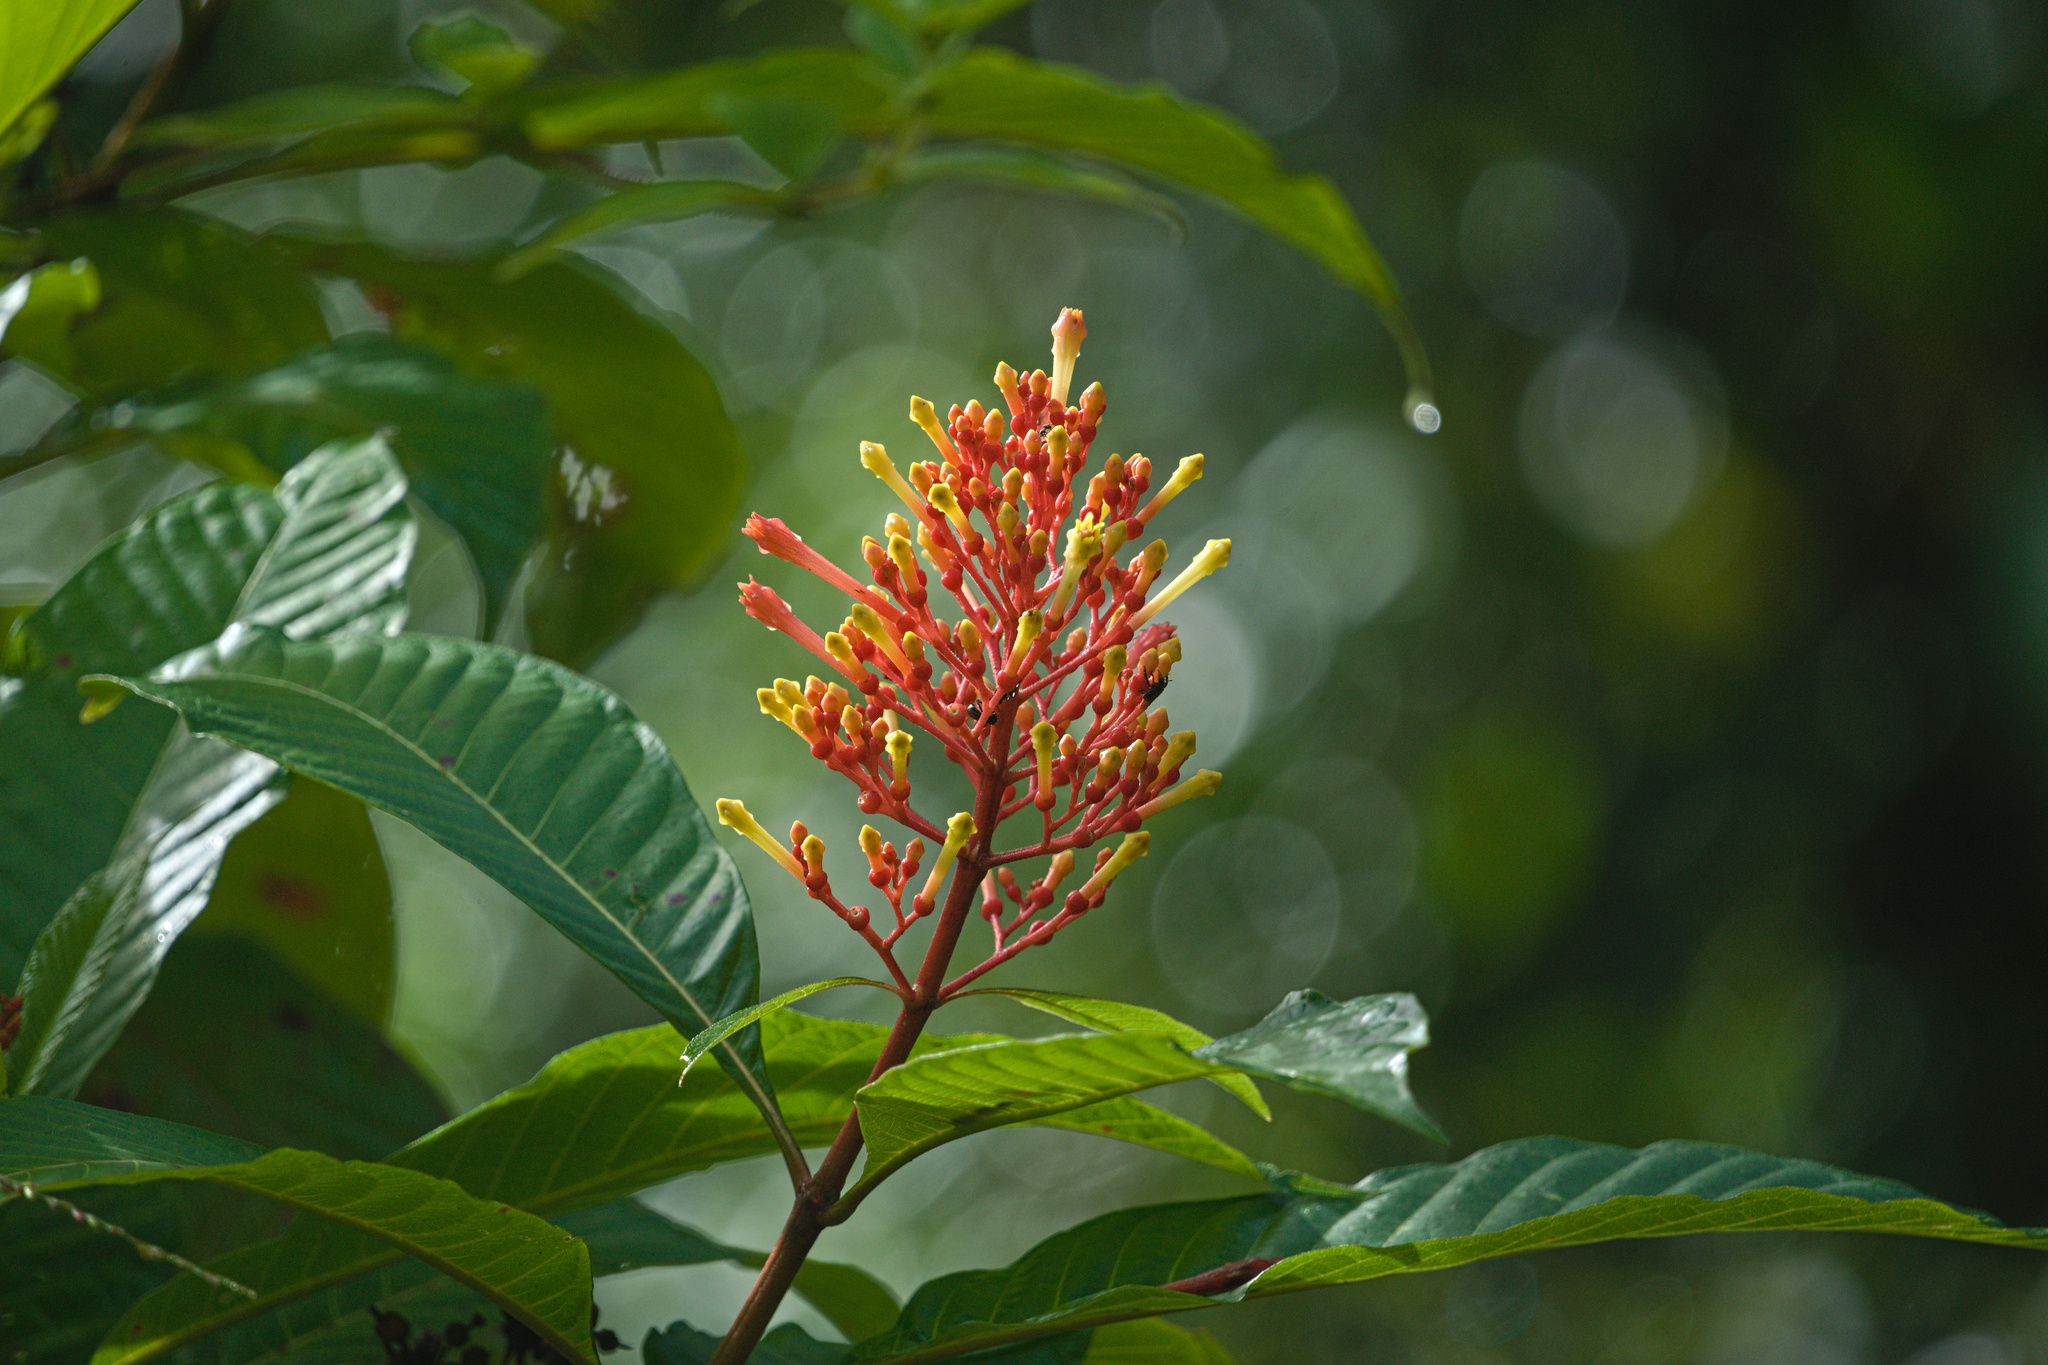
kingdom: Plantae
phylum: Tracheophyta
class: Magnoliopsida
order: Gentianales
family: Rubiaceae
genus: Isertia
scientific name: Isertia haenkeana
